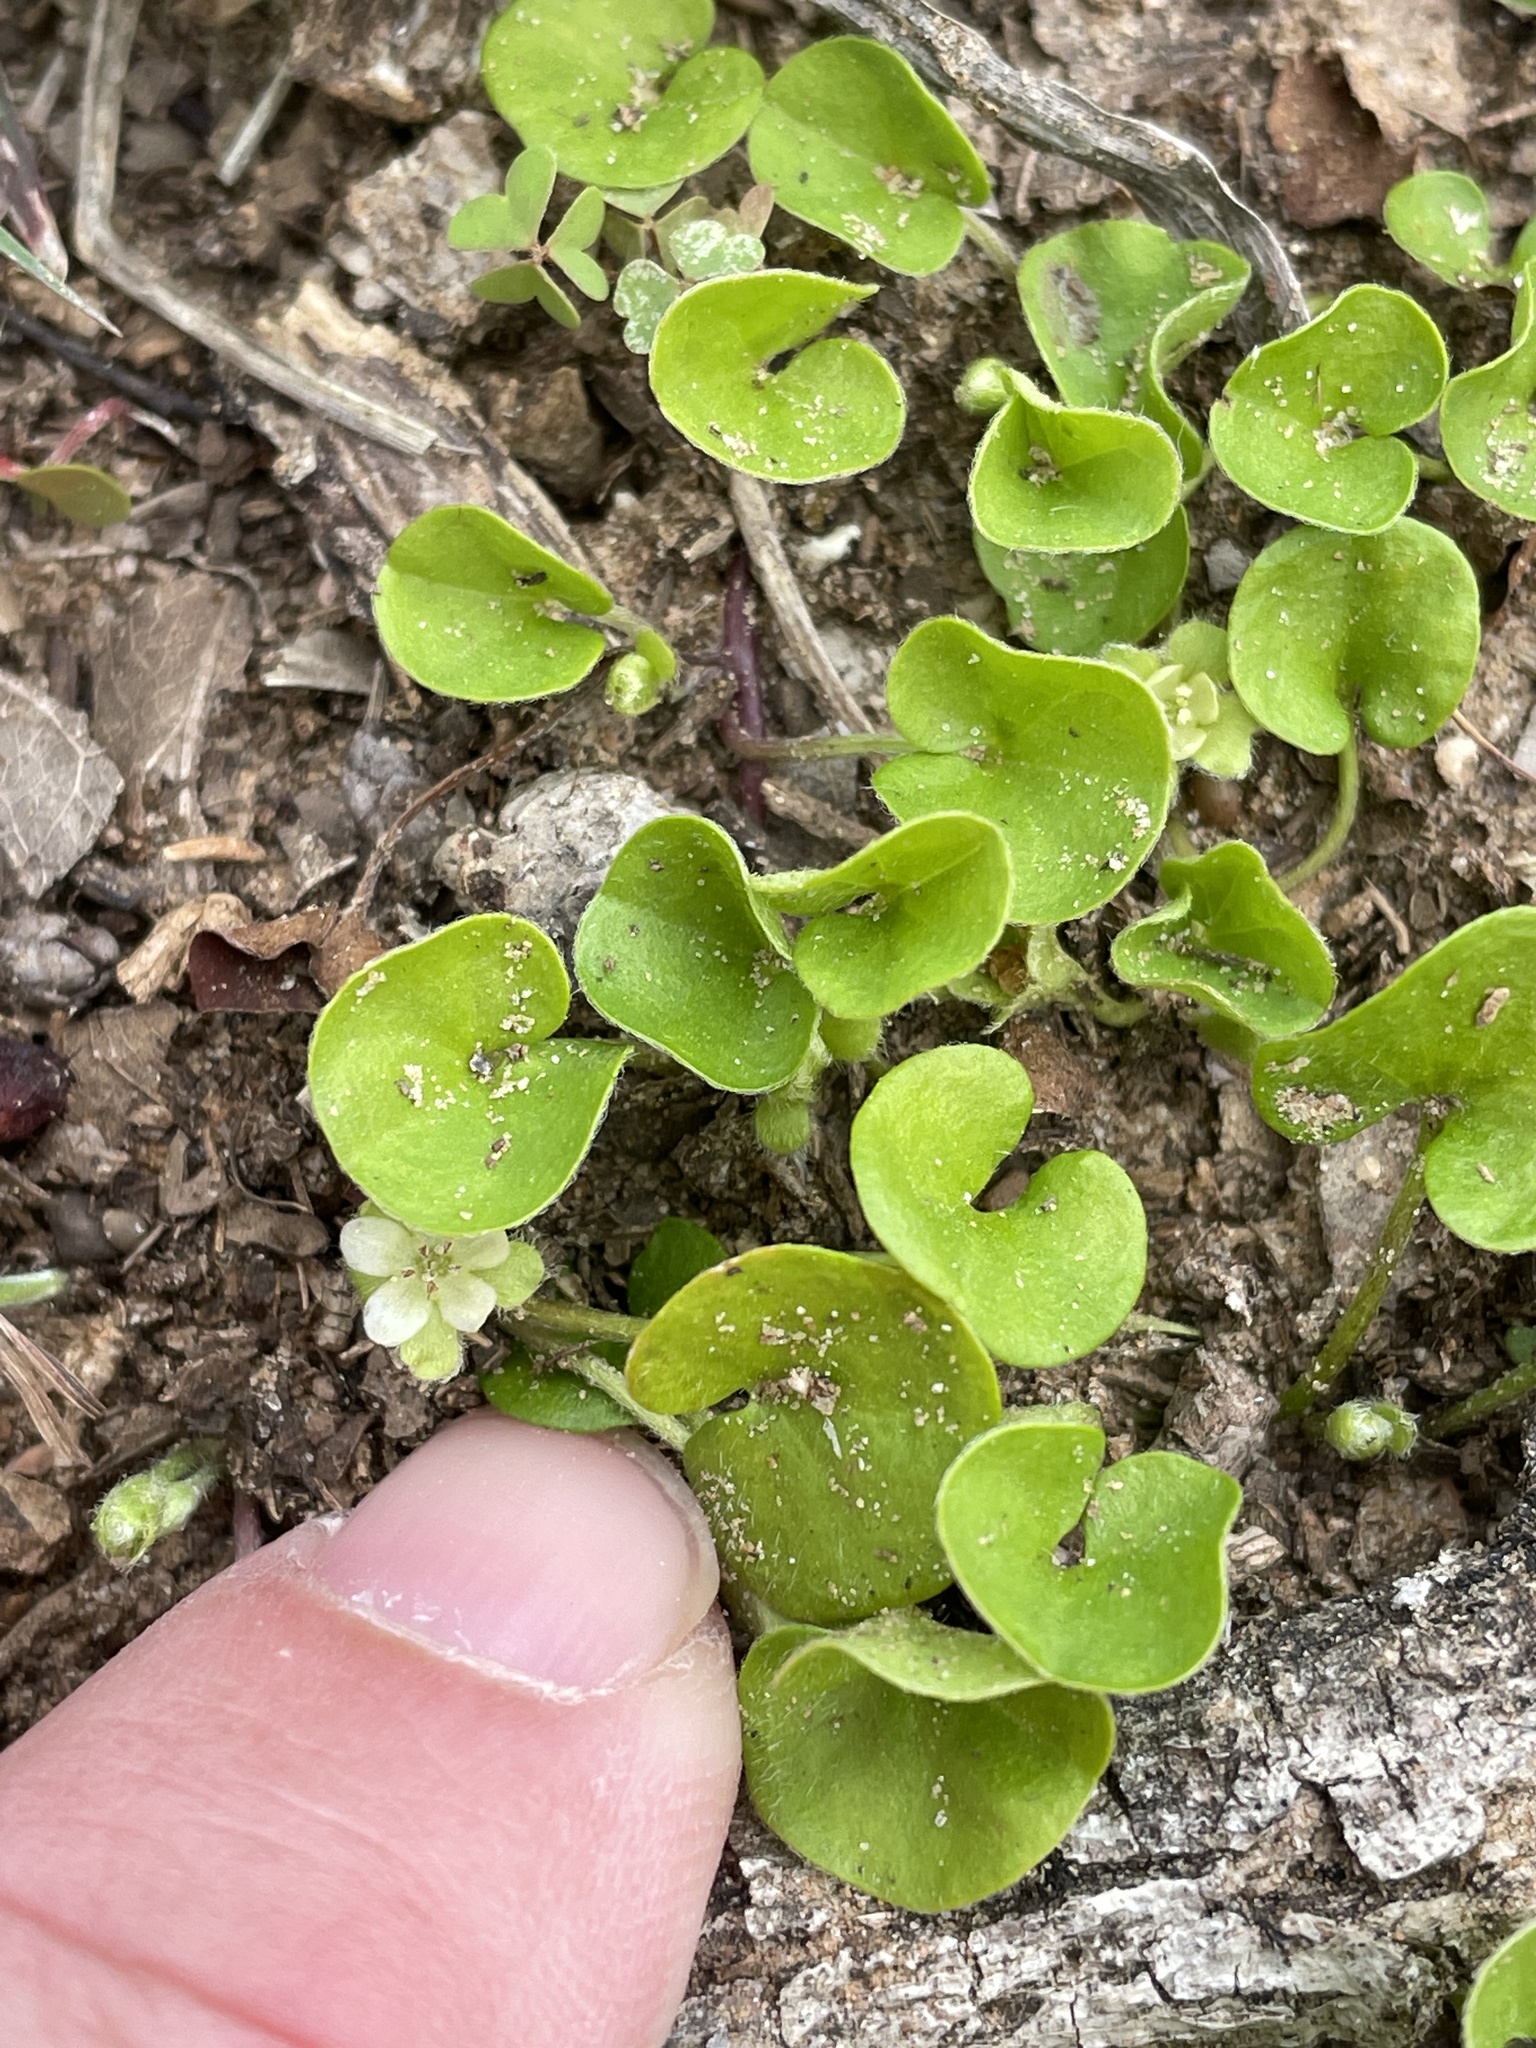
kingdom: Plantae
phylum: Tracheophyta
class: Magnoliopsida
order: Solanales
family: Convolvulaceae
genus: Dichondra
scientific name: Dichondra carolinensis
